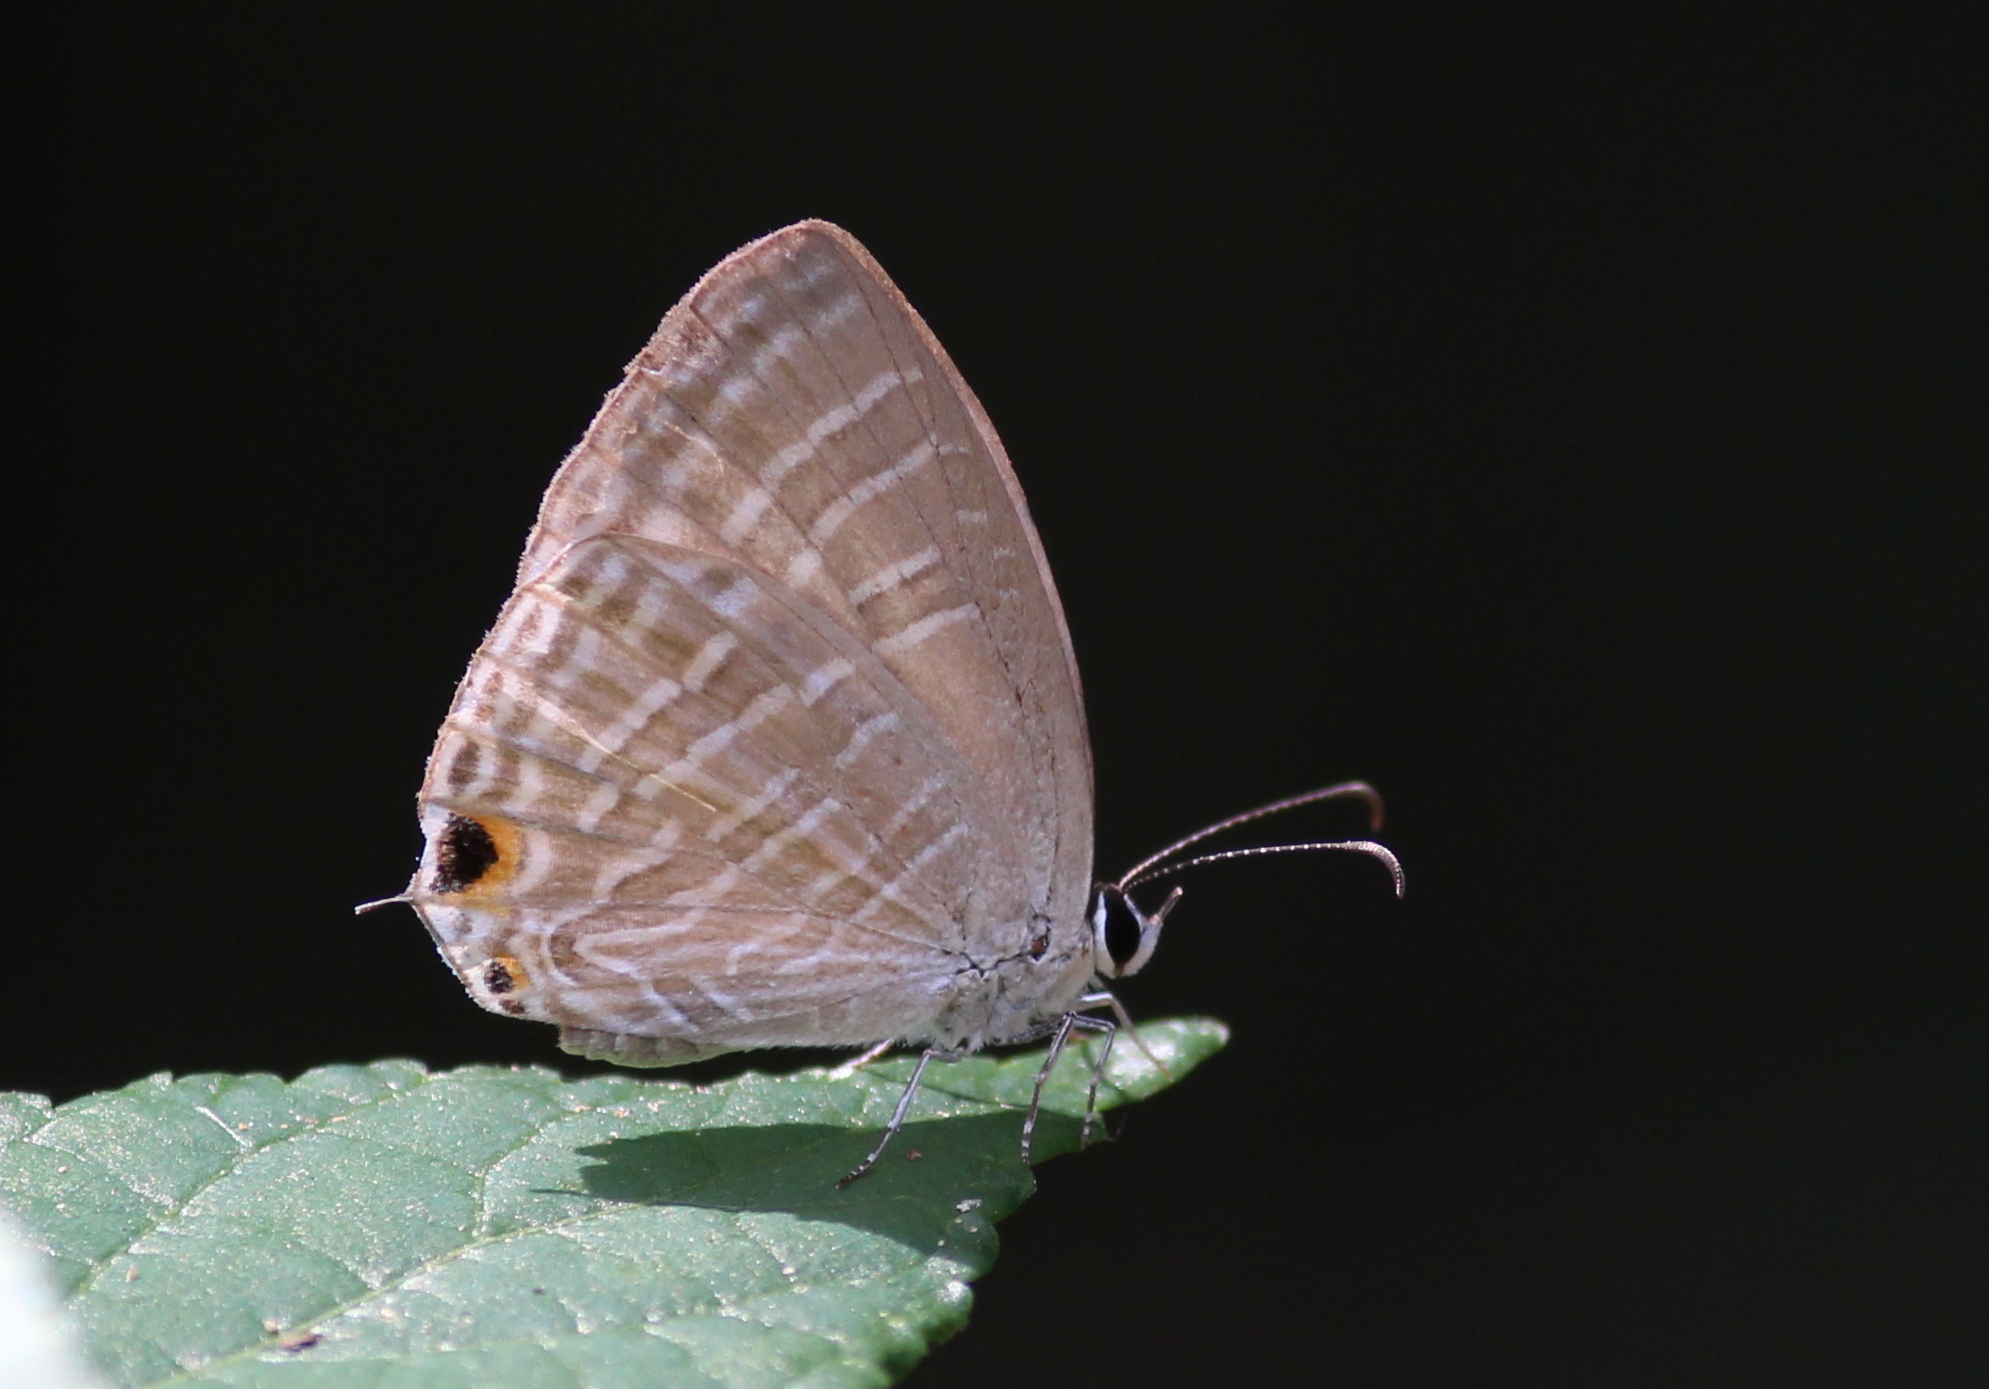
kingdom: Animalia
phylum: Arthropoda
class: Insecta
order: Lepidoptera
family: Lycaenidae
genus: Jamides
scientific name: Jamides celeno
